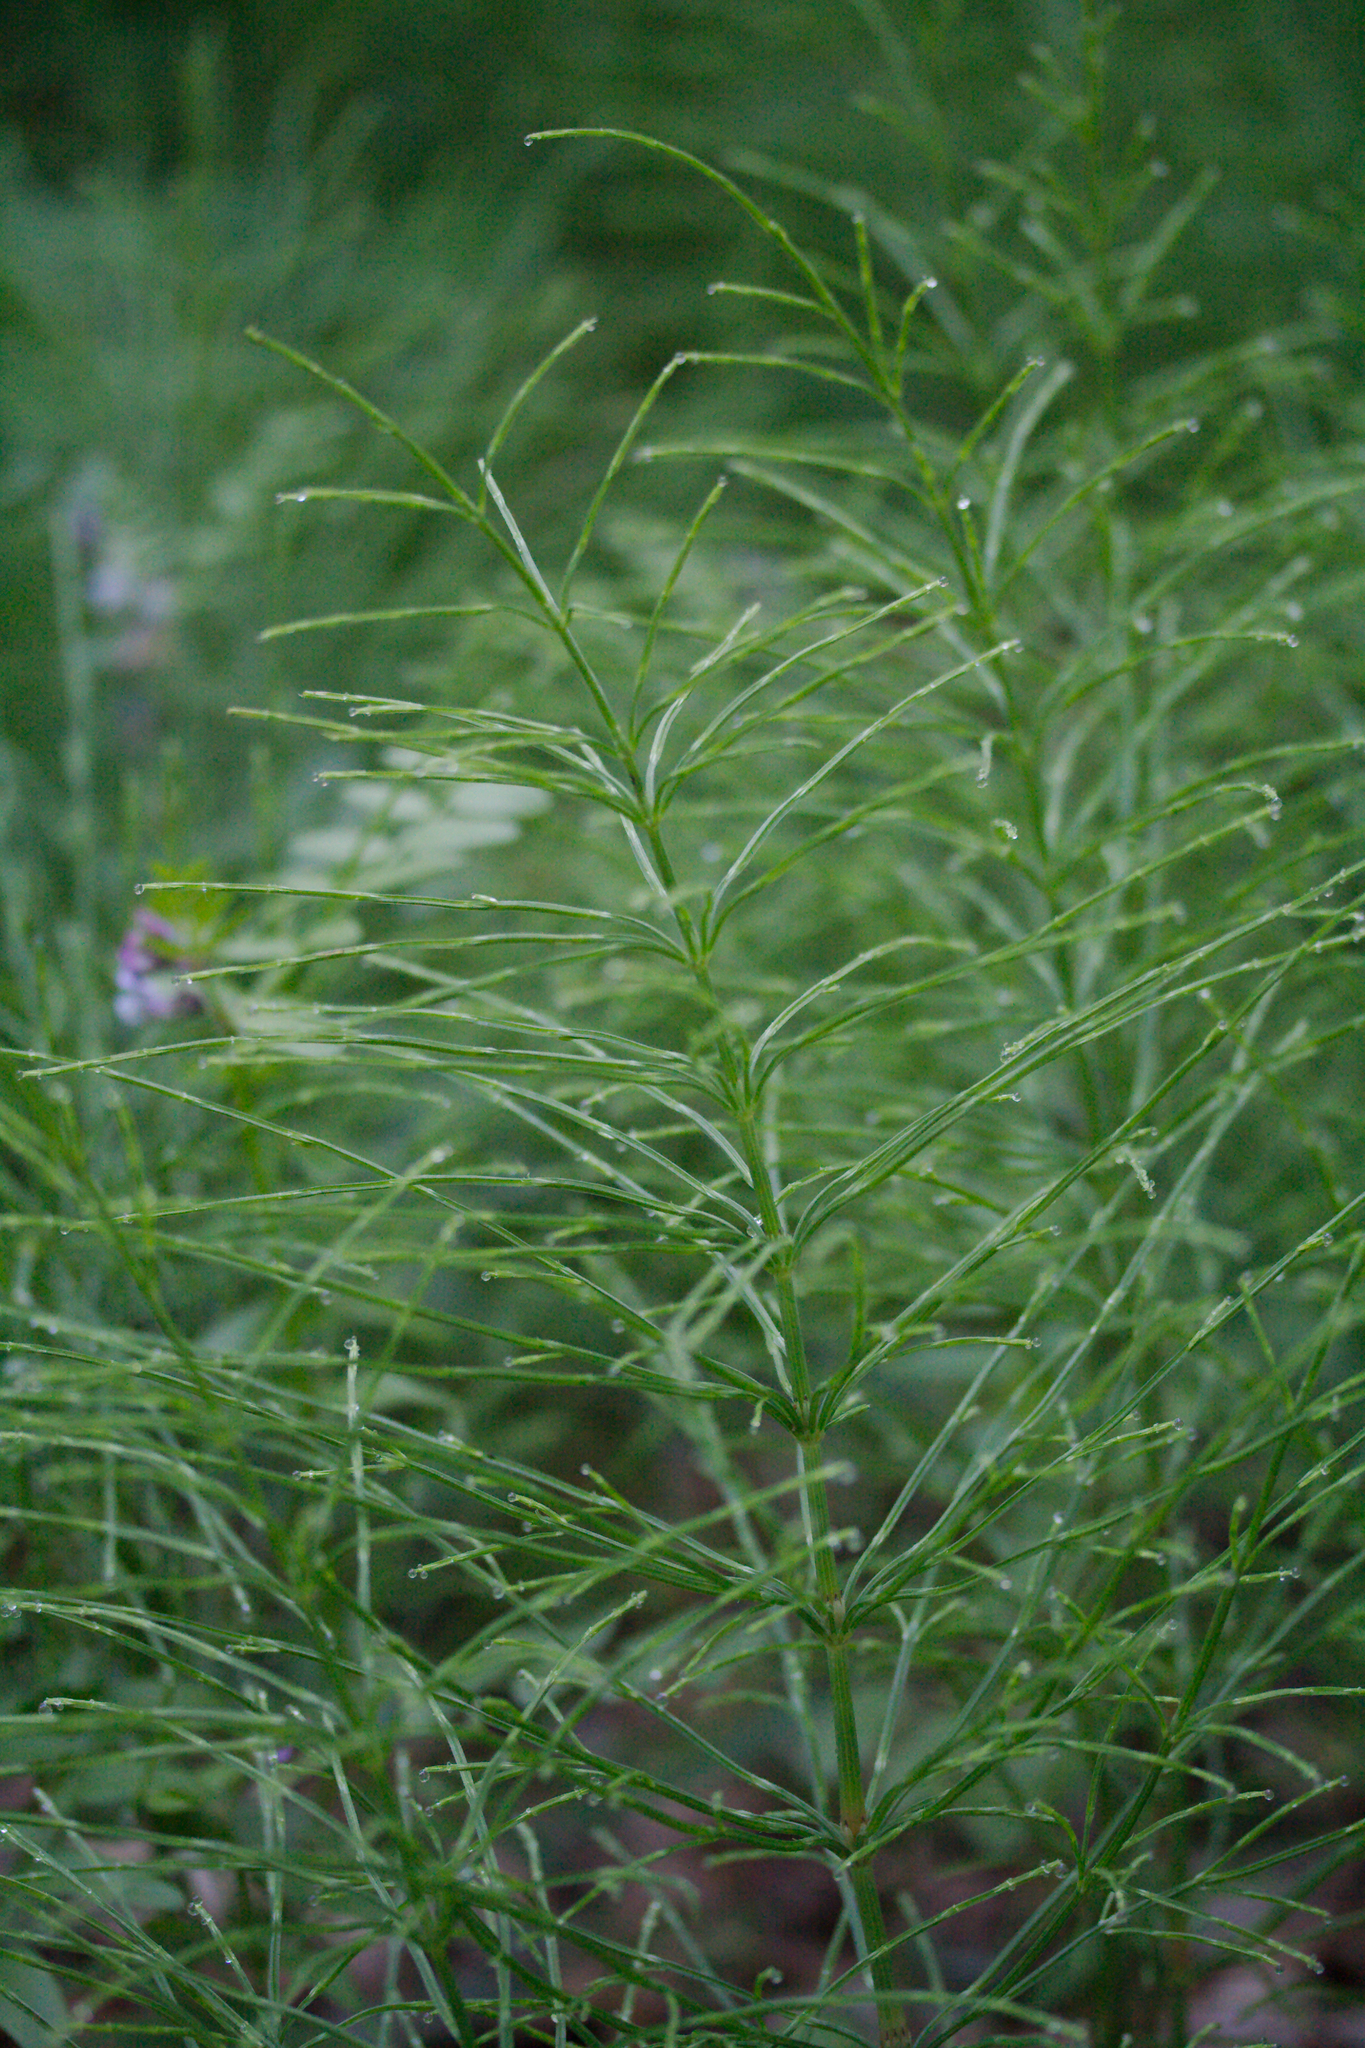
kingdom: Plantae
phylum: Tracheophyta
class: Polypodiopsida
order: Equisetales
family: Equisetaceae
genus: Equisetum
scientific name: Equisetum arvense
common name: Field horsetail
